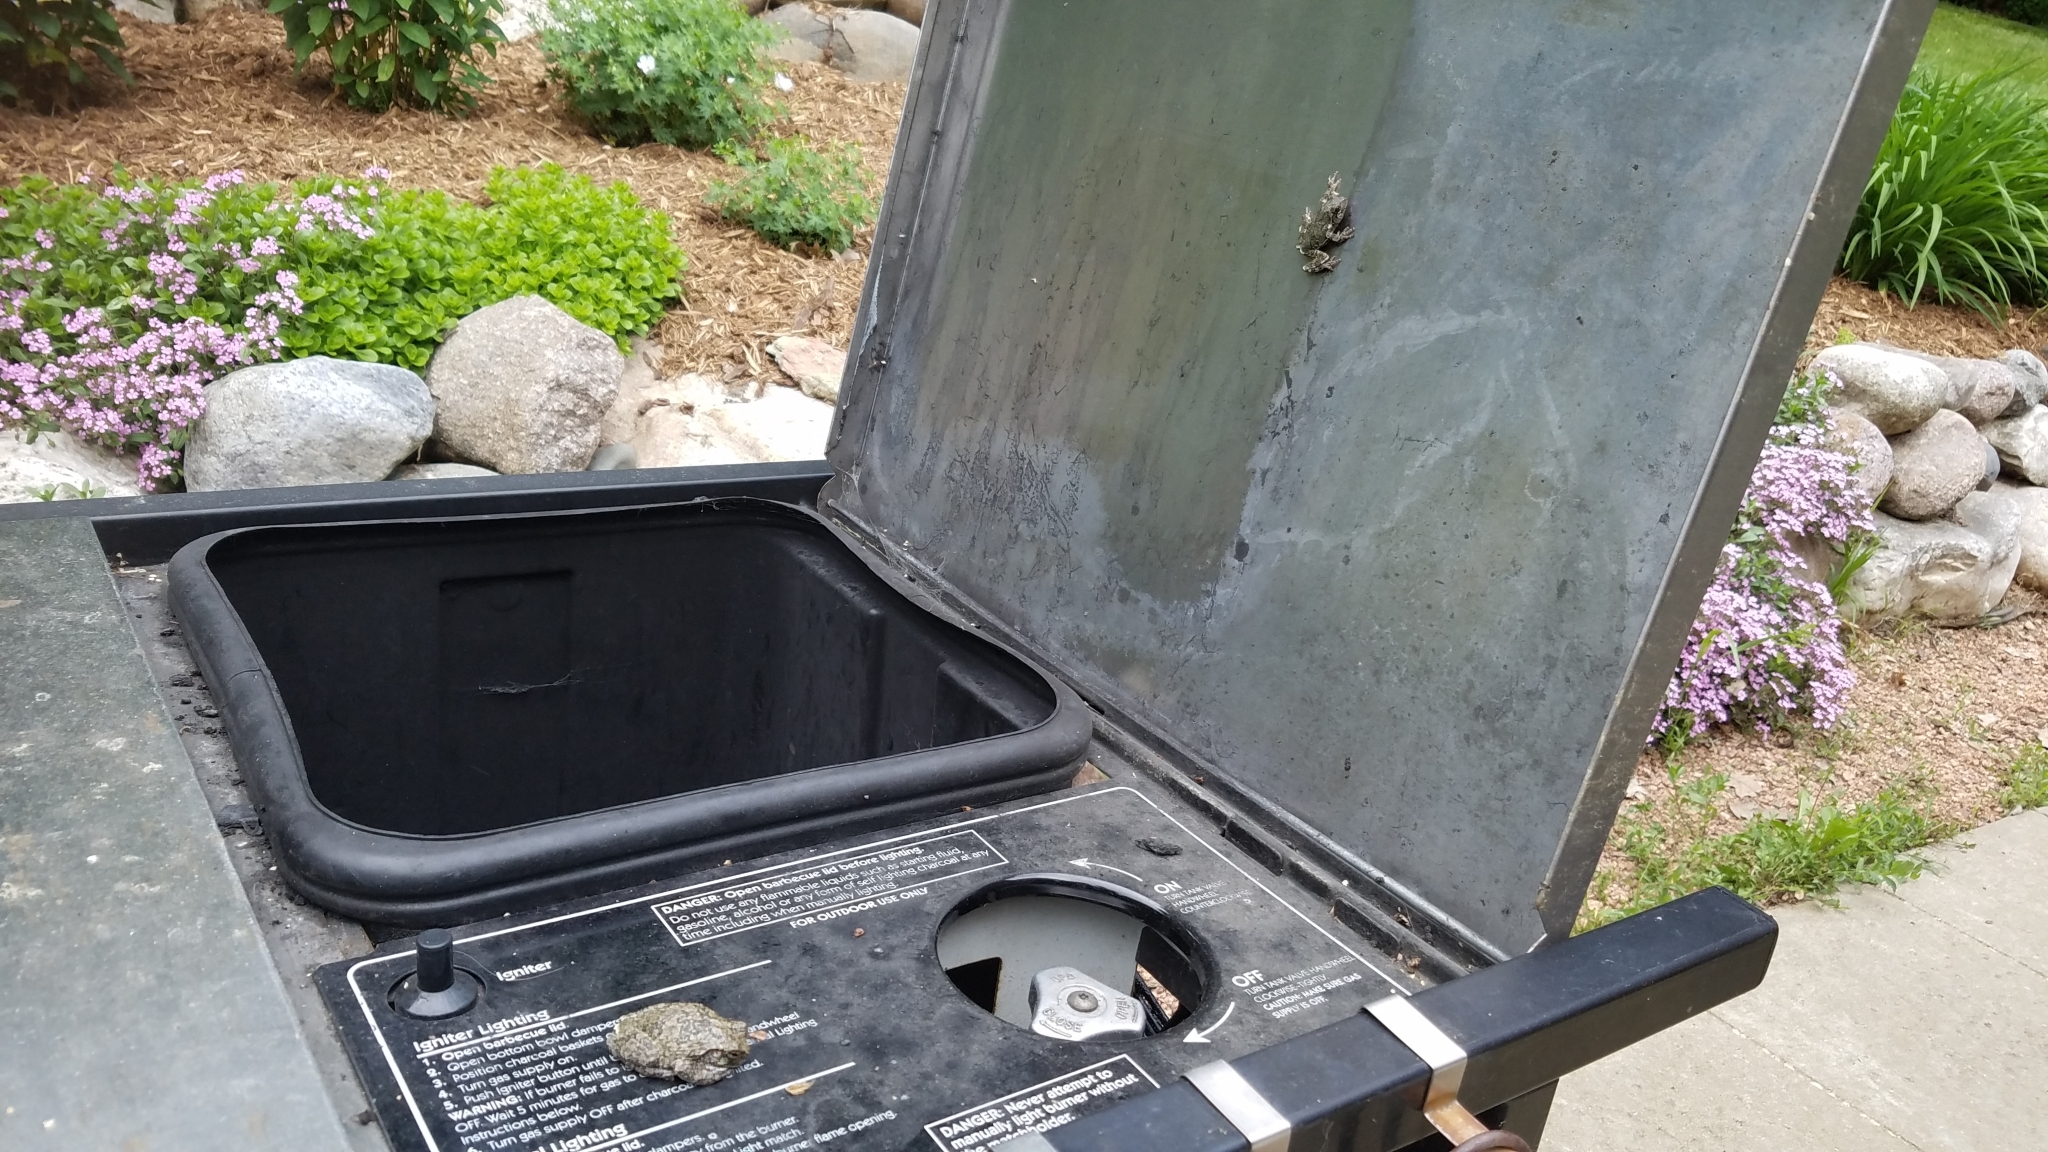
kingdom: Animalia
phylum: Chordata
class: Amphibia
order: Anura
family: Hylidae
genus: Hyla
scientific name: Hyla
